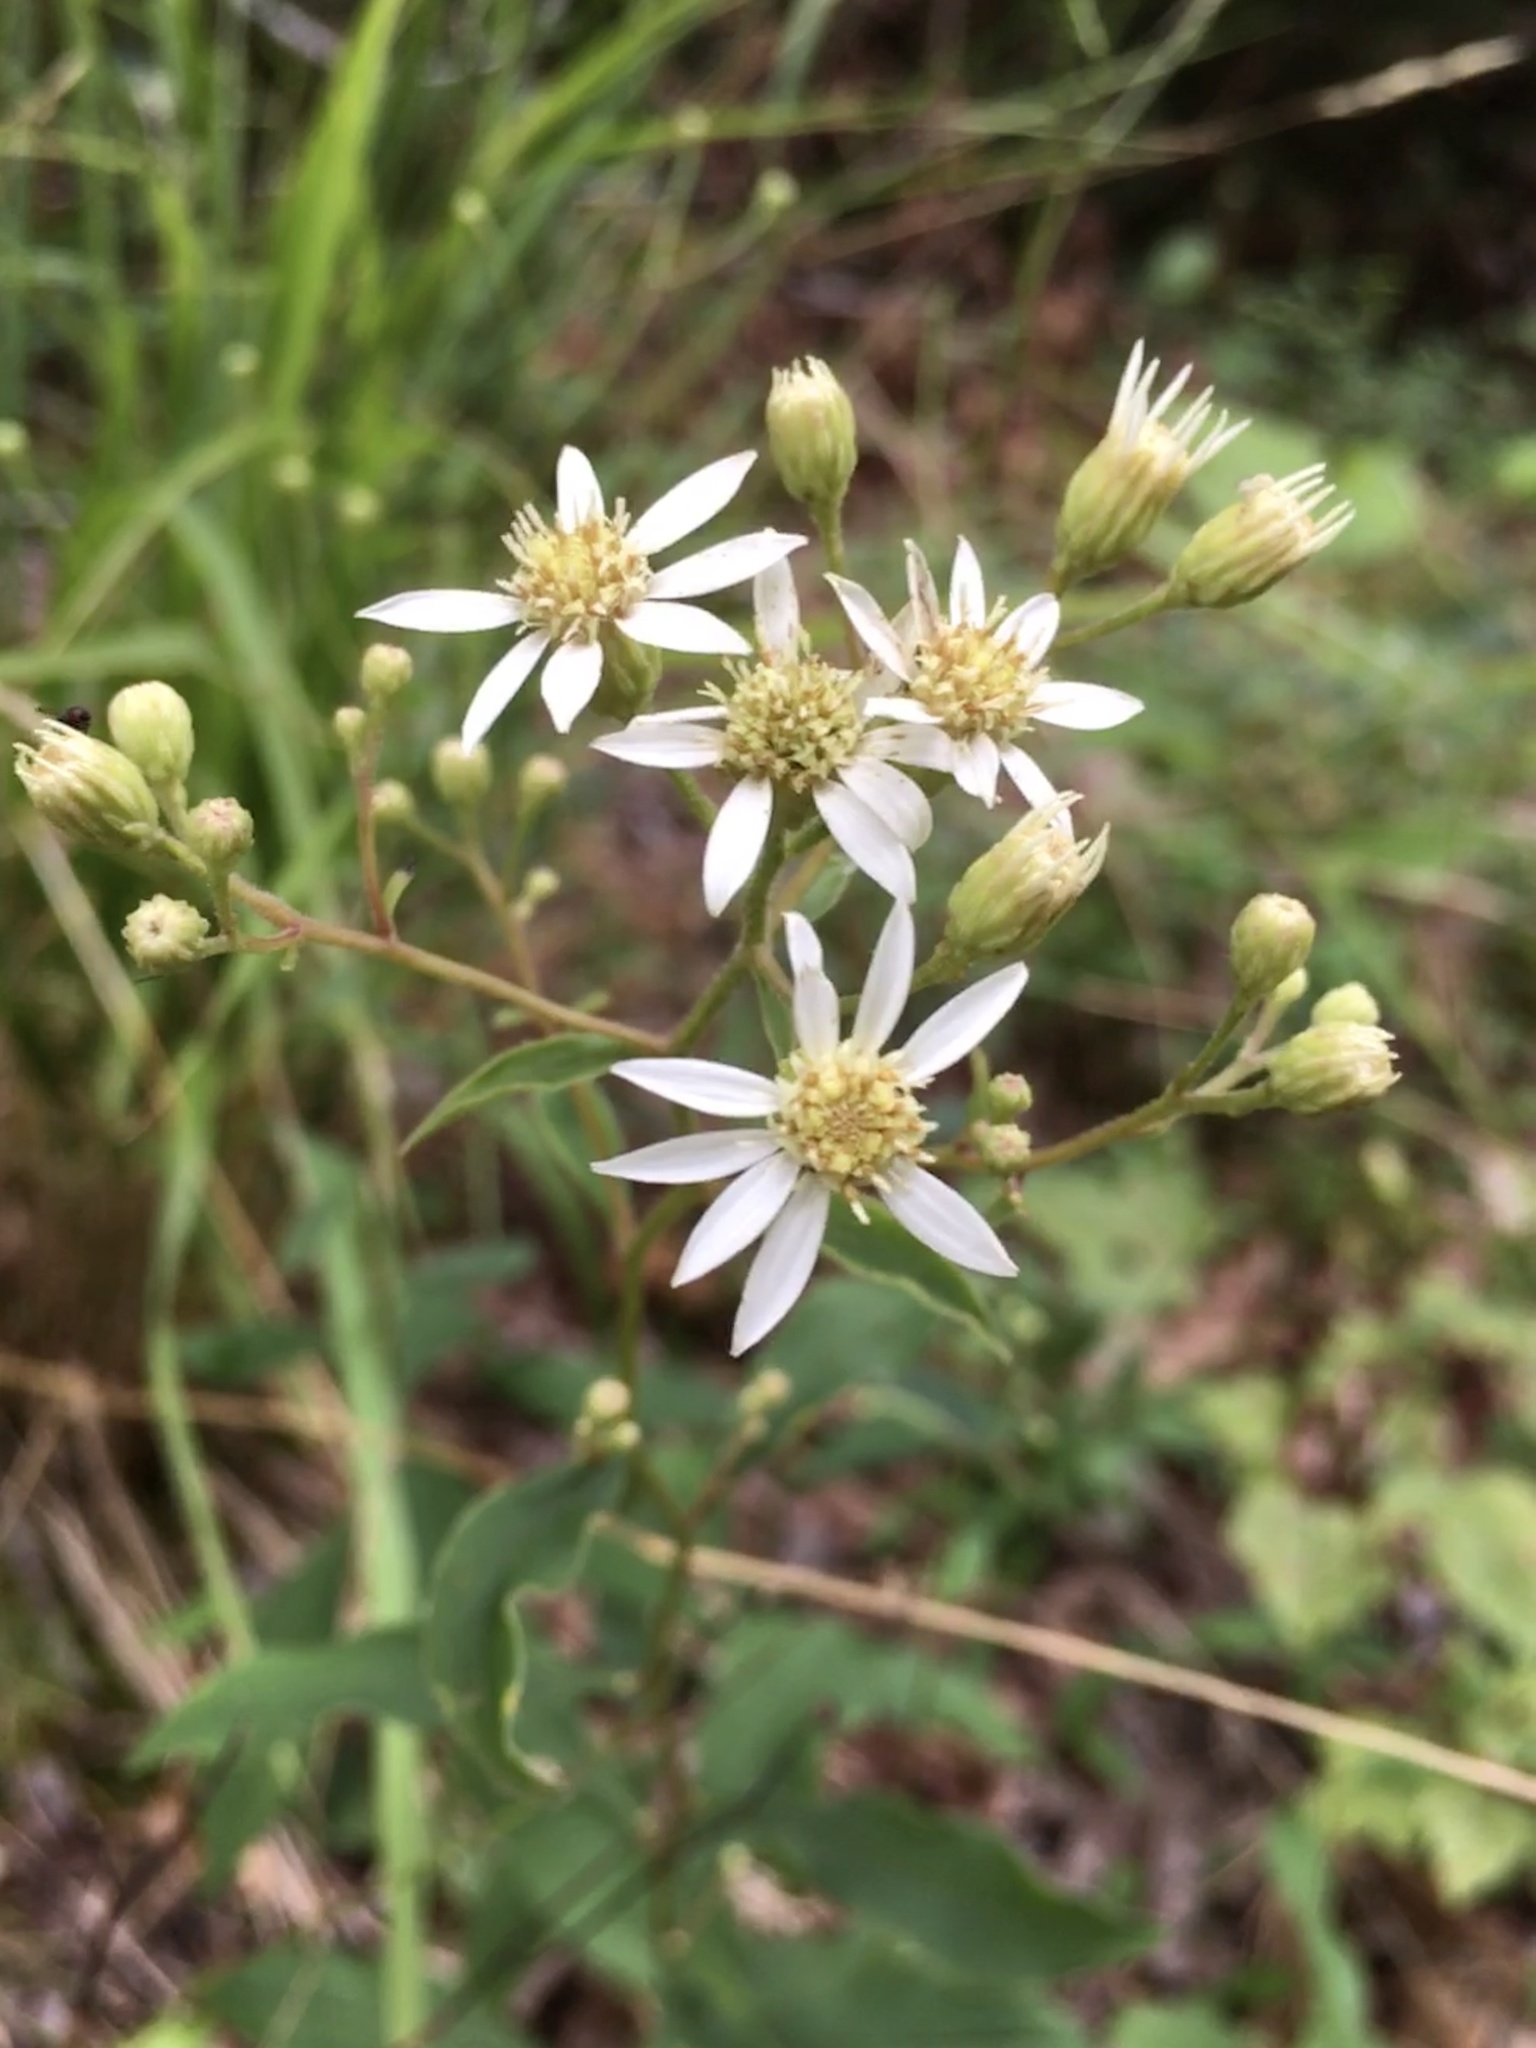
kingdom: Plantae
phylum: Tracheophyta
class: Magnoliopsida
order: Asterales
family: Asteraceae
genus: Doellingeria
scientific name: Doellingeria infirma
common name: Appalachian flat-top aster
